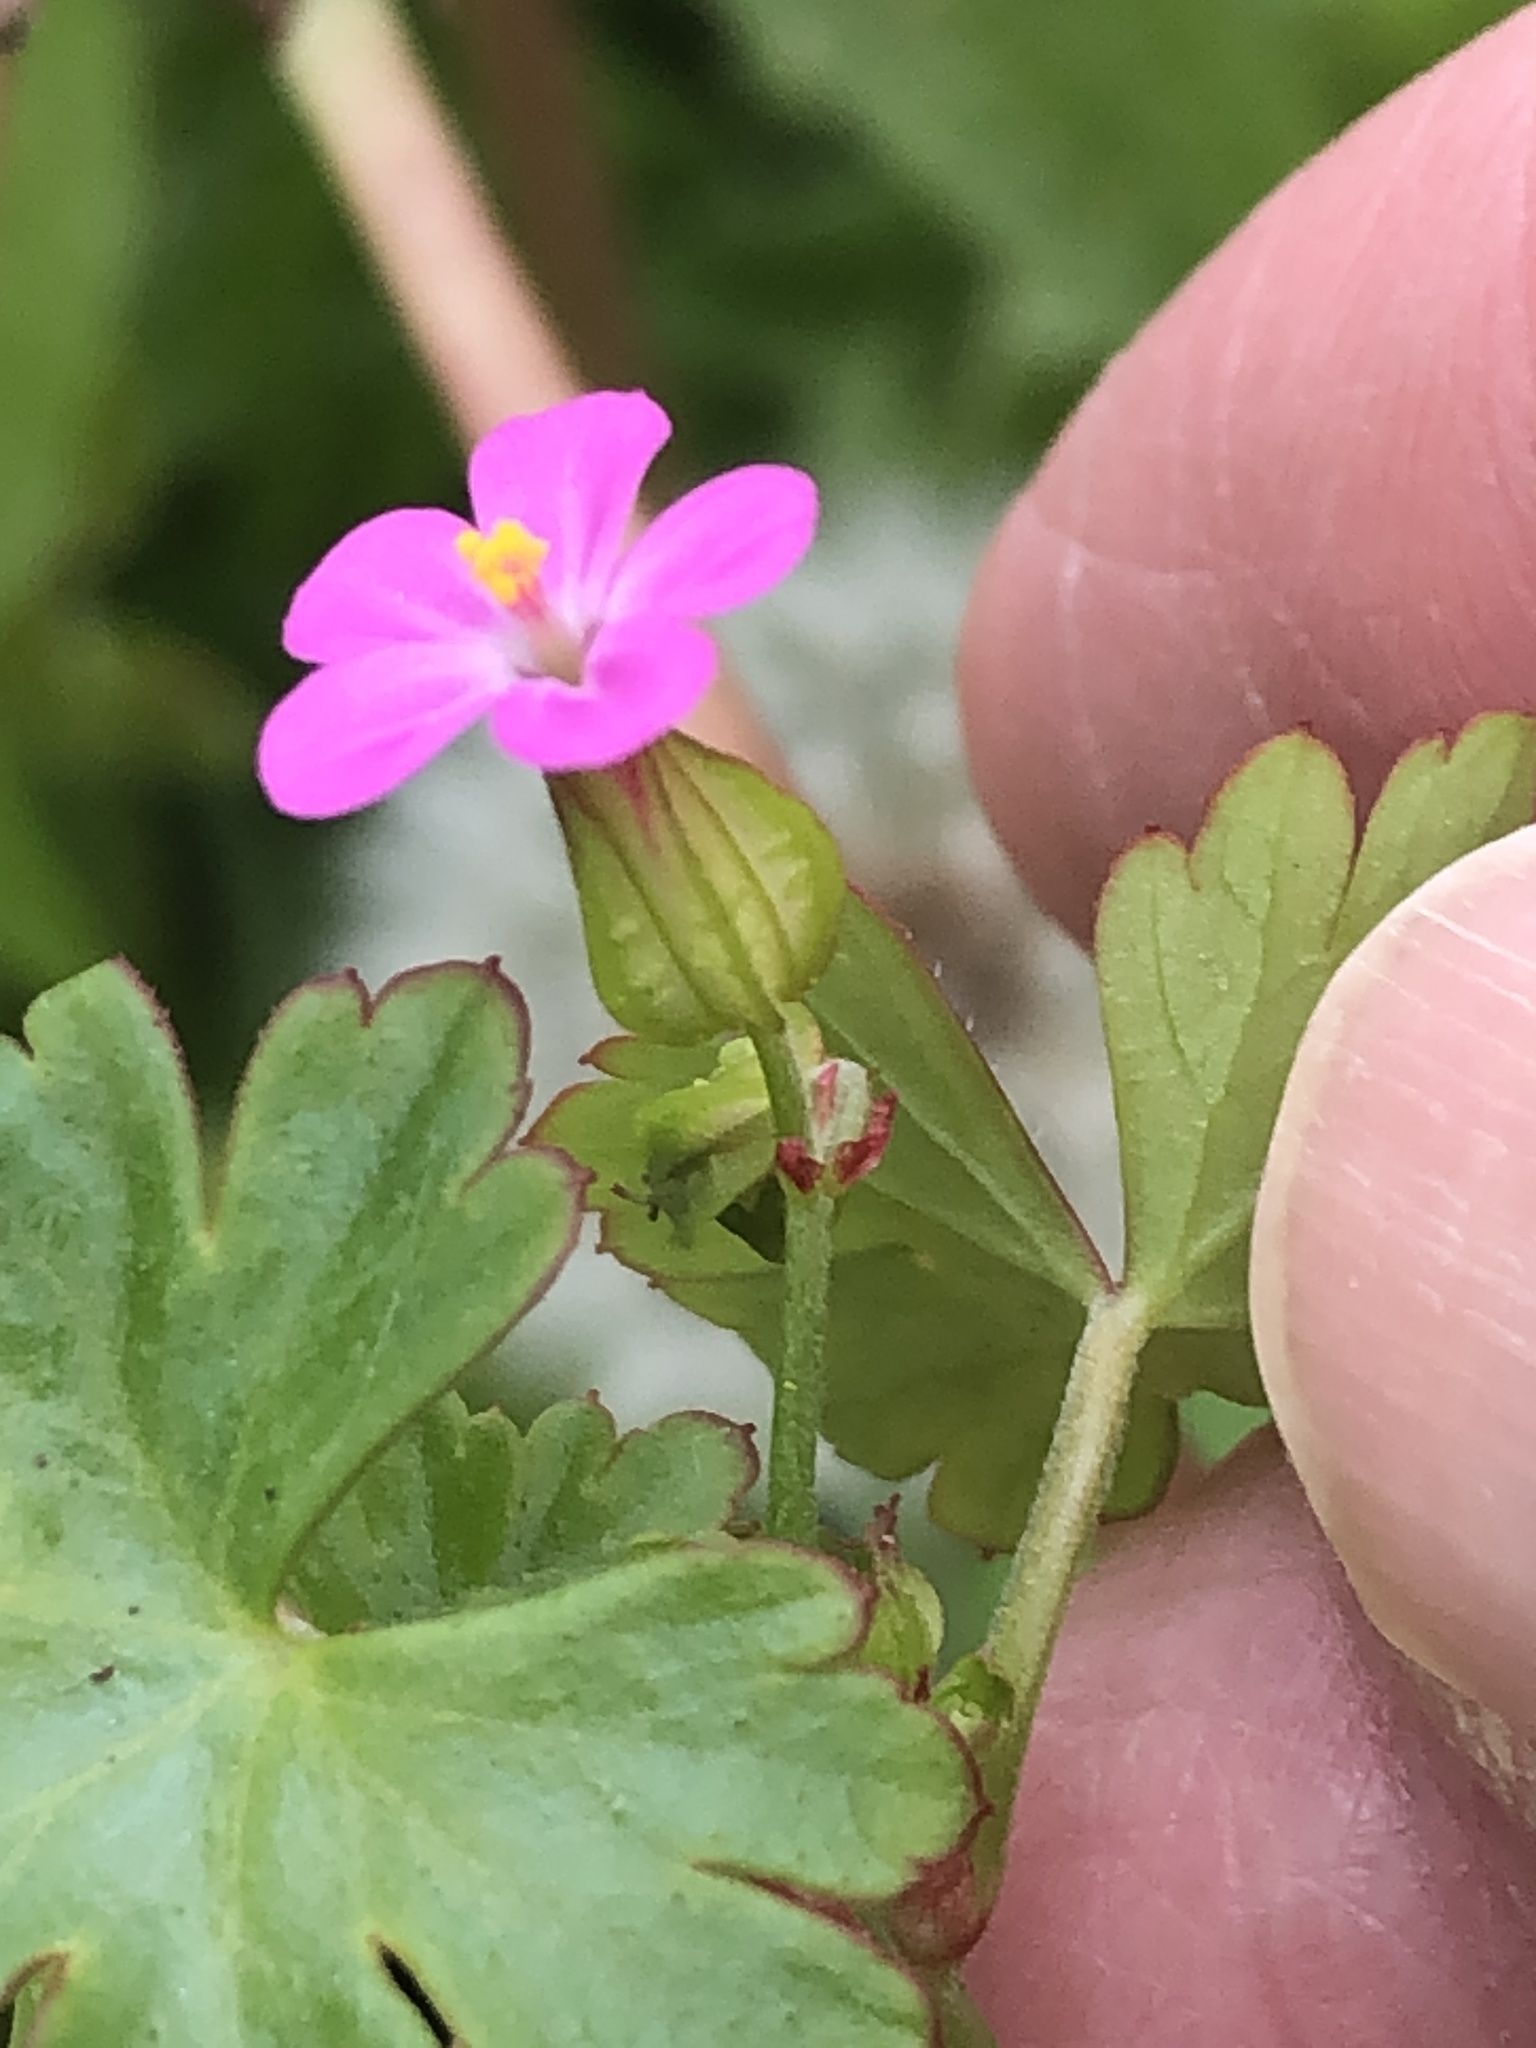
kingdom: Plantae
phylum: Tracheophyta
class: Magnoliopsida
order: Geraniales
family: Geraniaceae
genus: Geranium
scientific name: Geranium lucidum
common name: Shining crane's-bill
